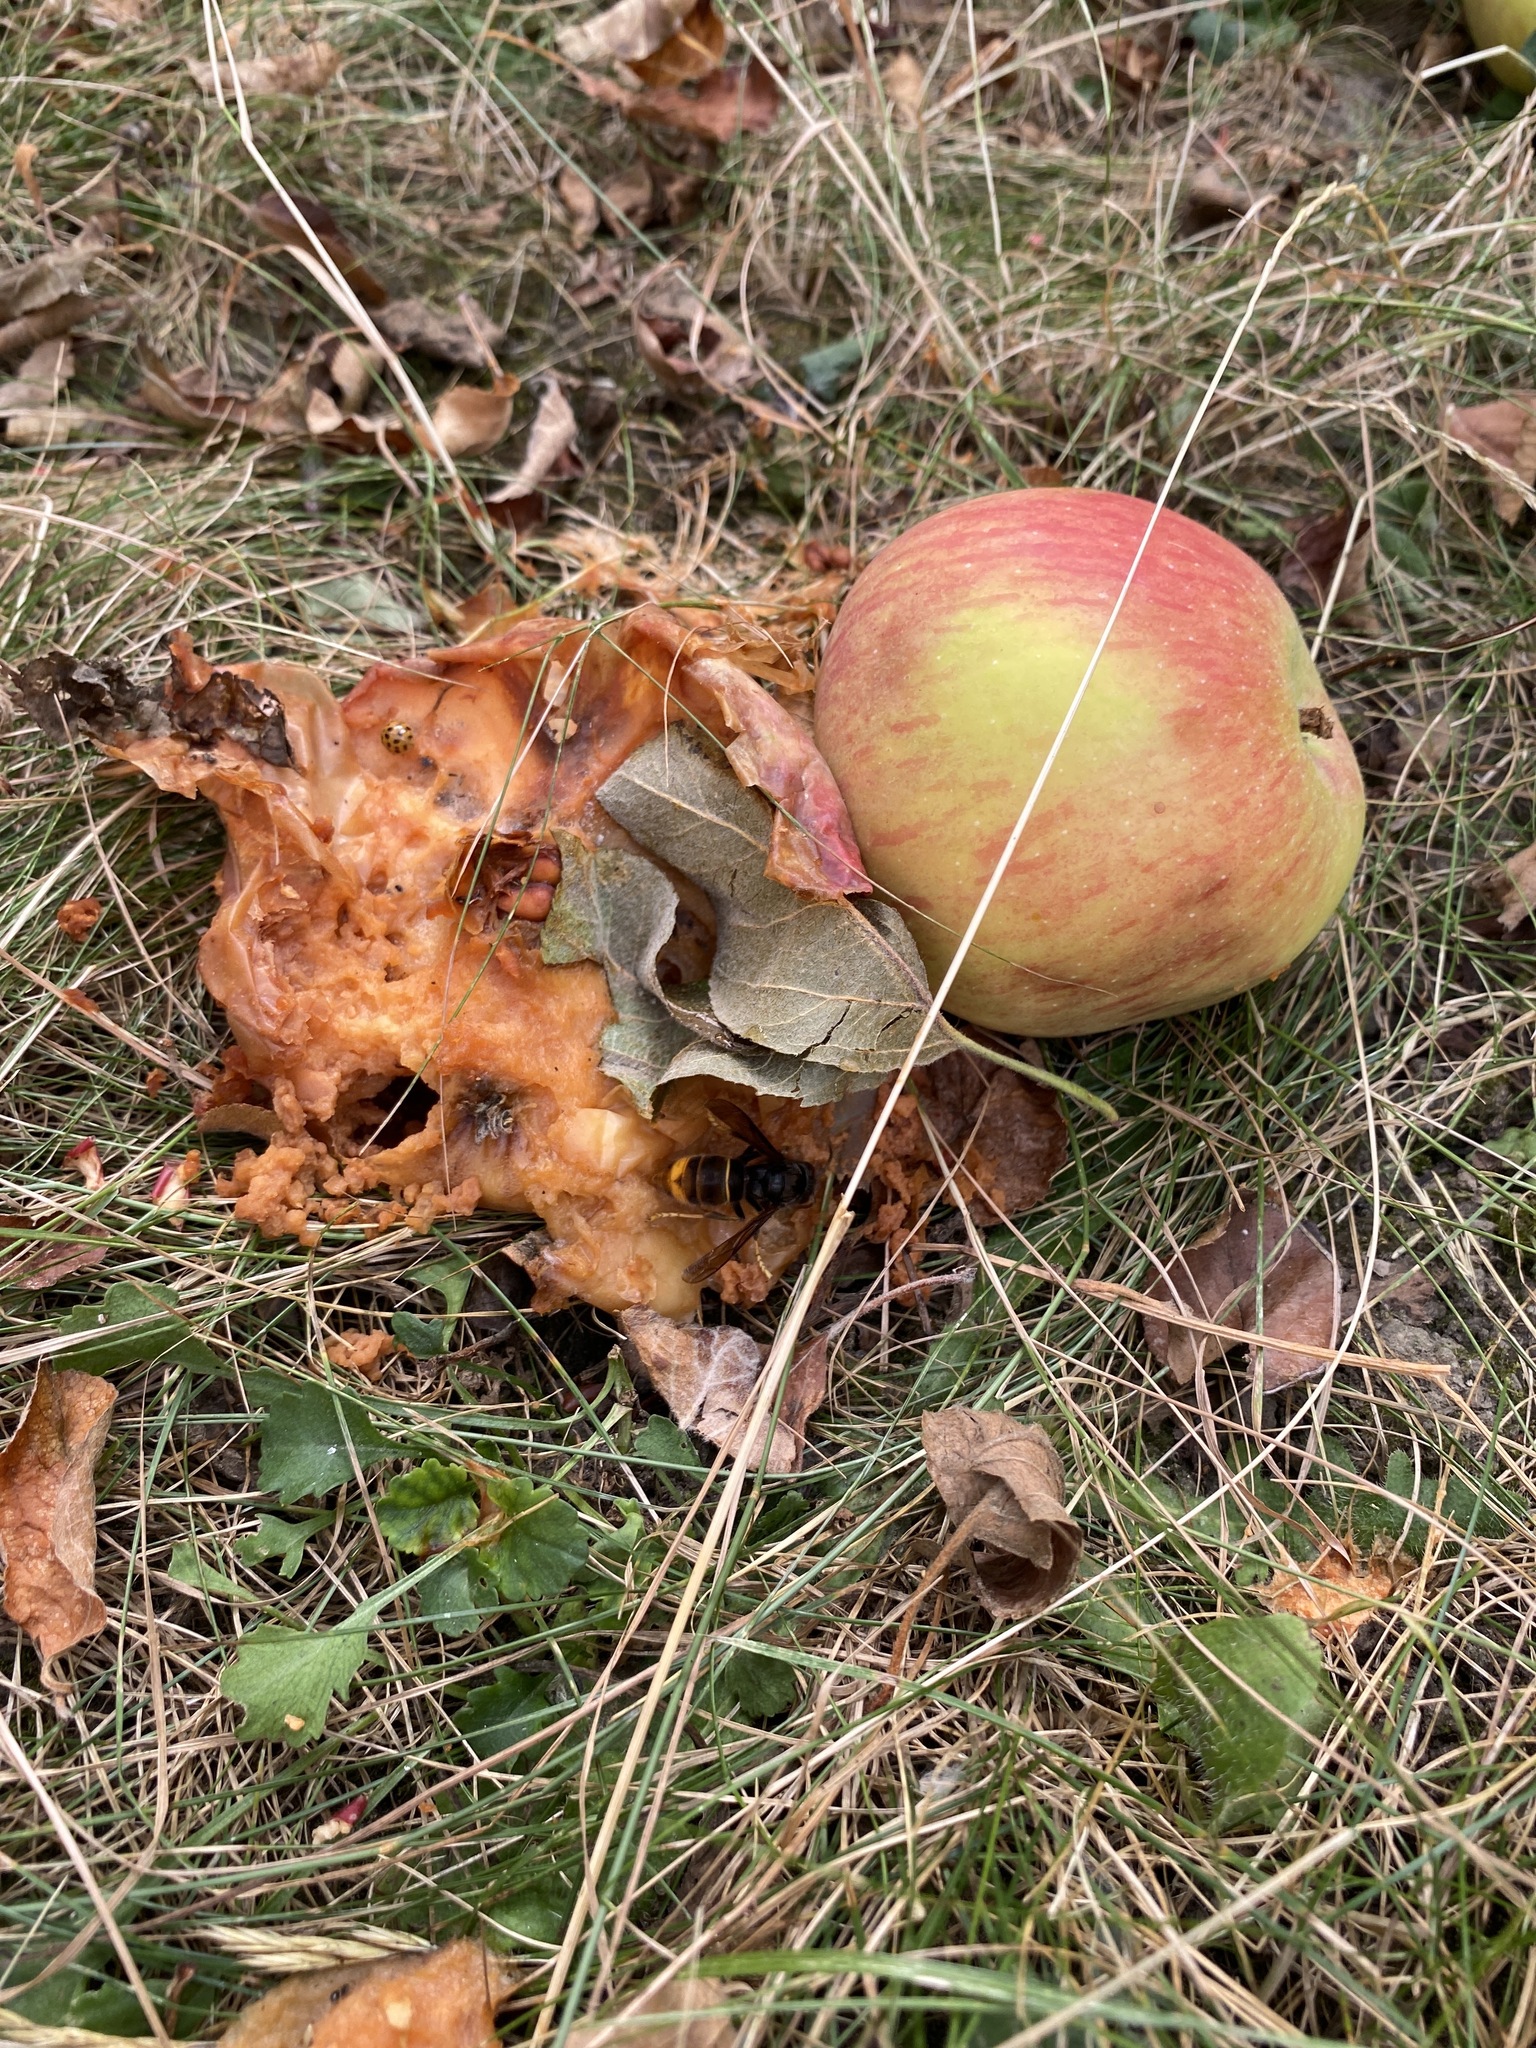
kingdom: Animalia
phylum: Arthropoda
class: Insecta
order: Hymenoptera
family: Vespidae
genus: Vespa
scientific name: Vespa velutina
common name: Asian hornet
